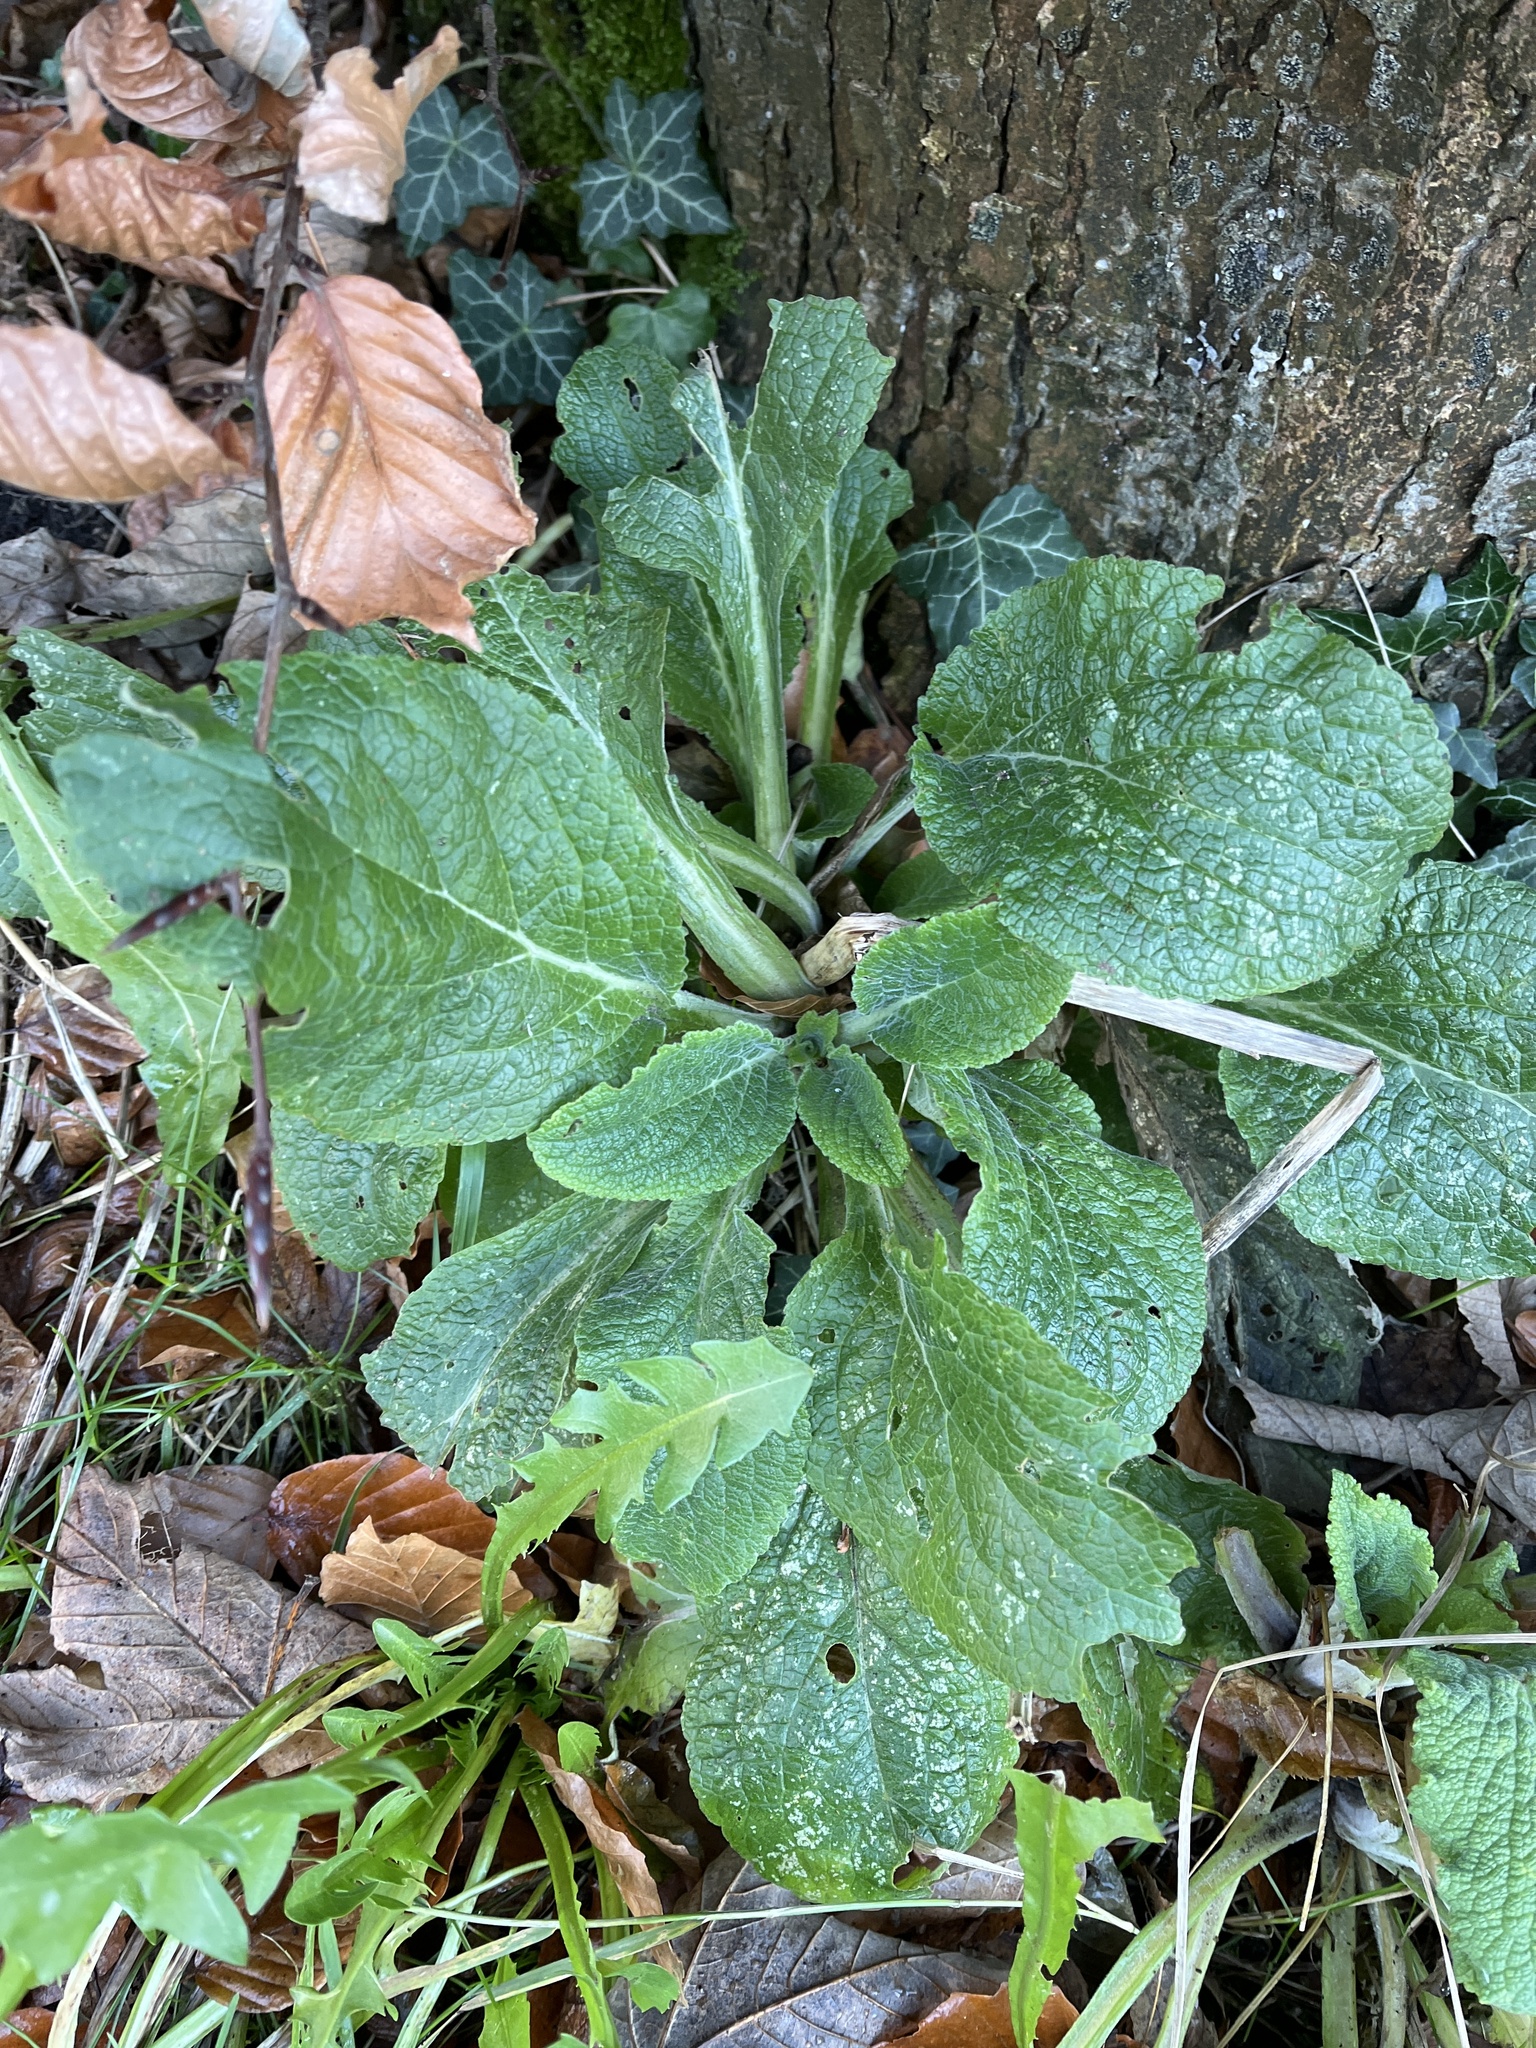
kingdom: Plantae
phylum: Tracheophyta
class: Magnoliopsida
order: Lamiales
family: Plantaginaceae
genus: Digitalis
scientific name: Digitalis purpurea
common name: Foxglove
